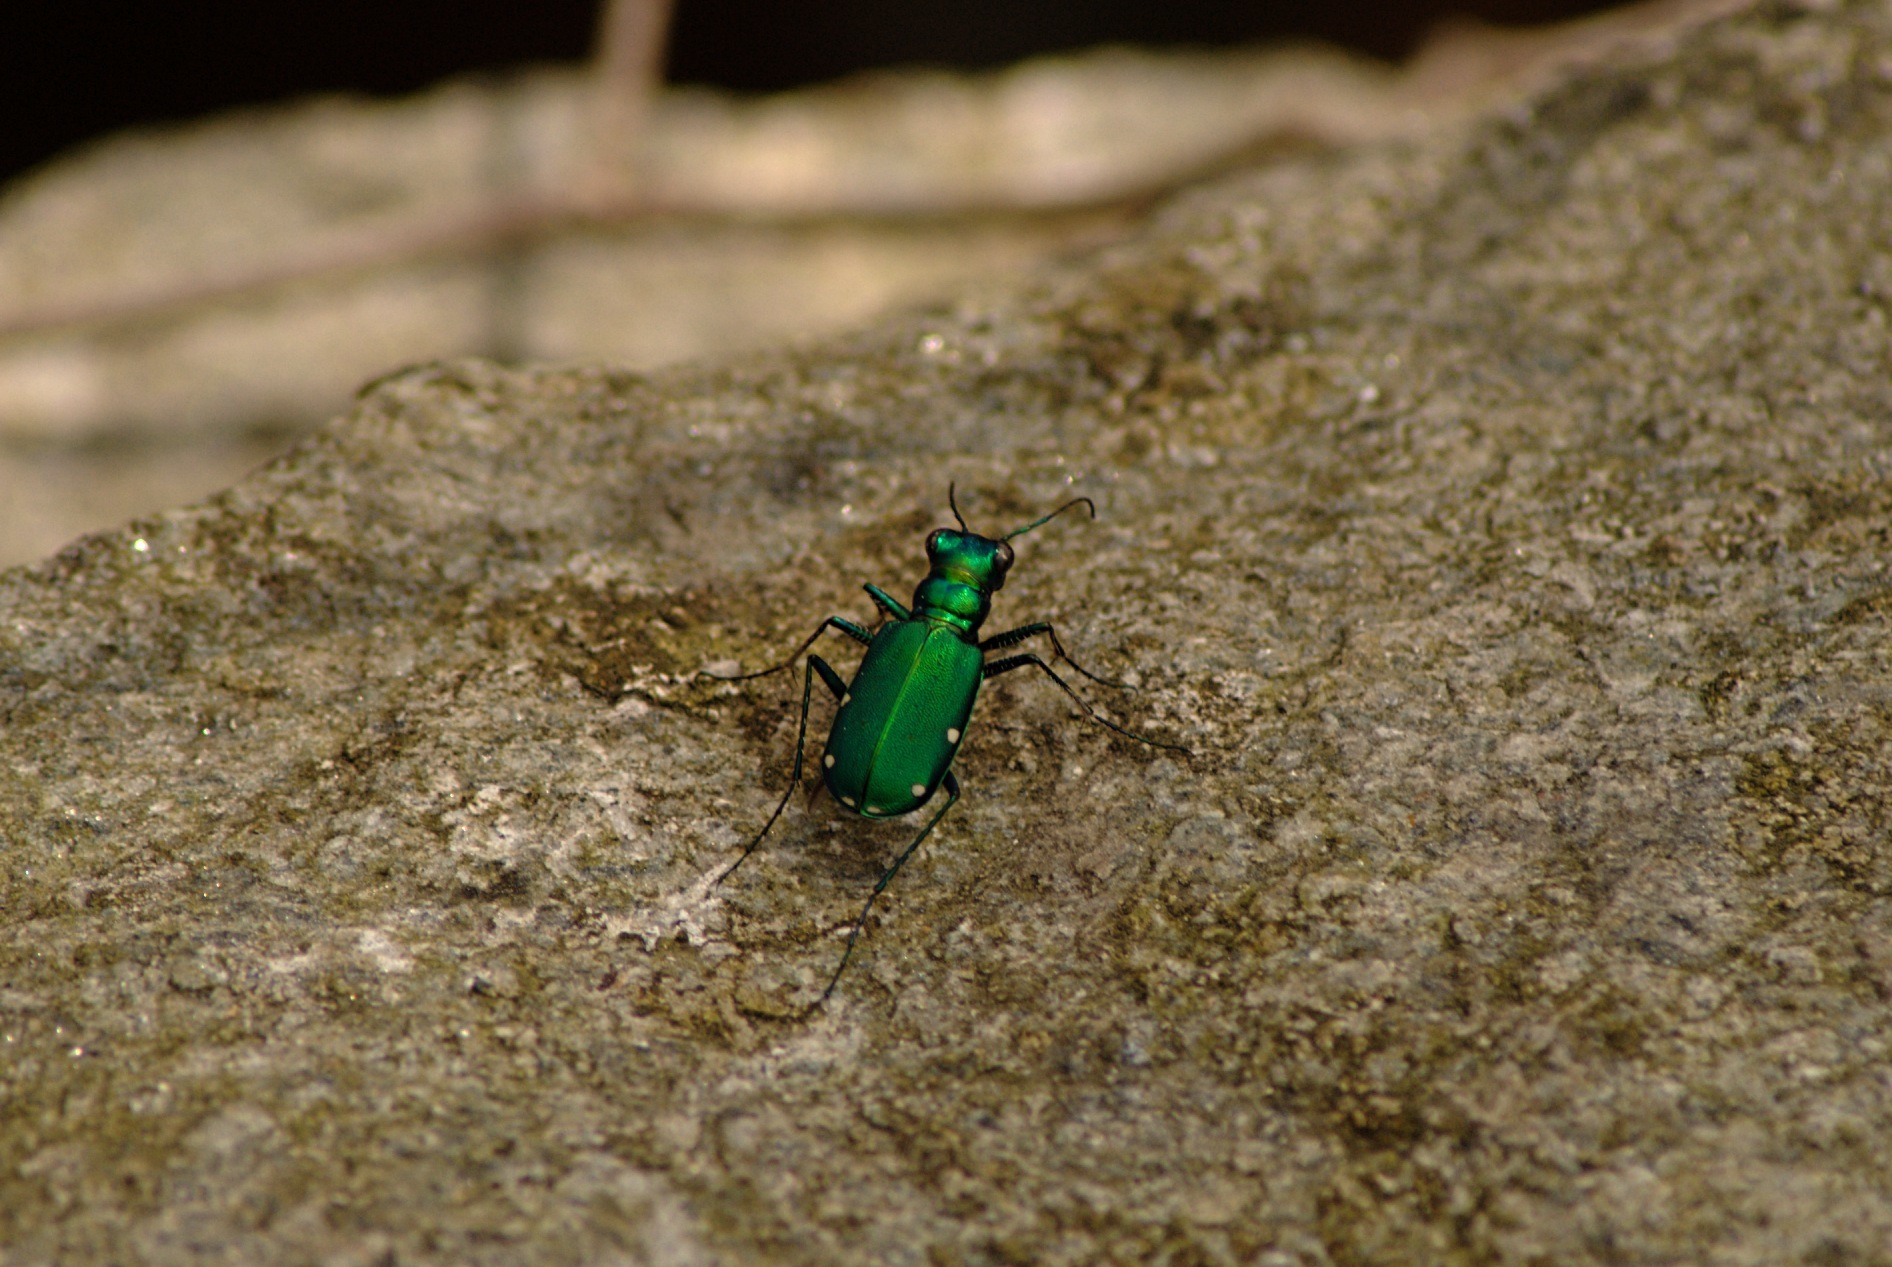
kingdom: Animalia
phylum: Arthropoda
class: Insecta
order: Coleoptera
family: Carabidae
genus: Cicindela
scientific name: Cicindela sexguttata
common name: Six-spotted tiger beetle
